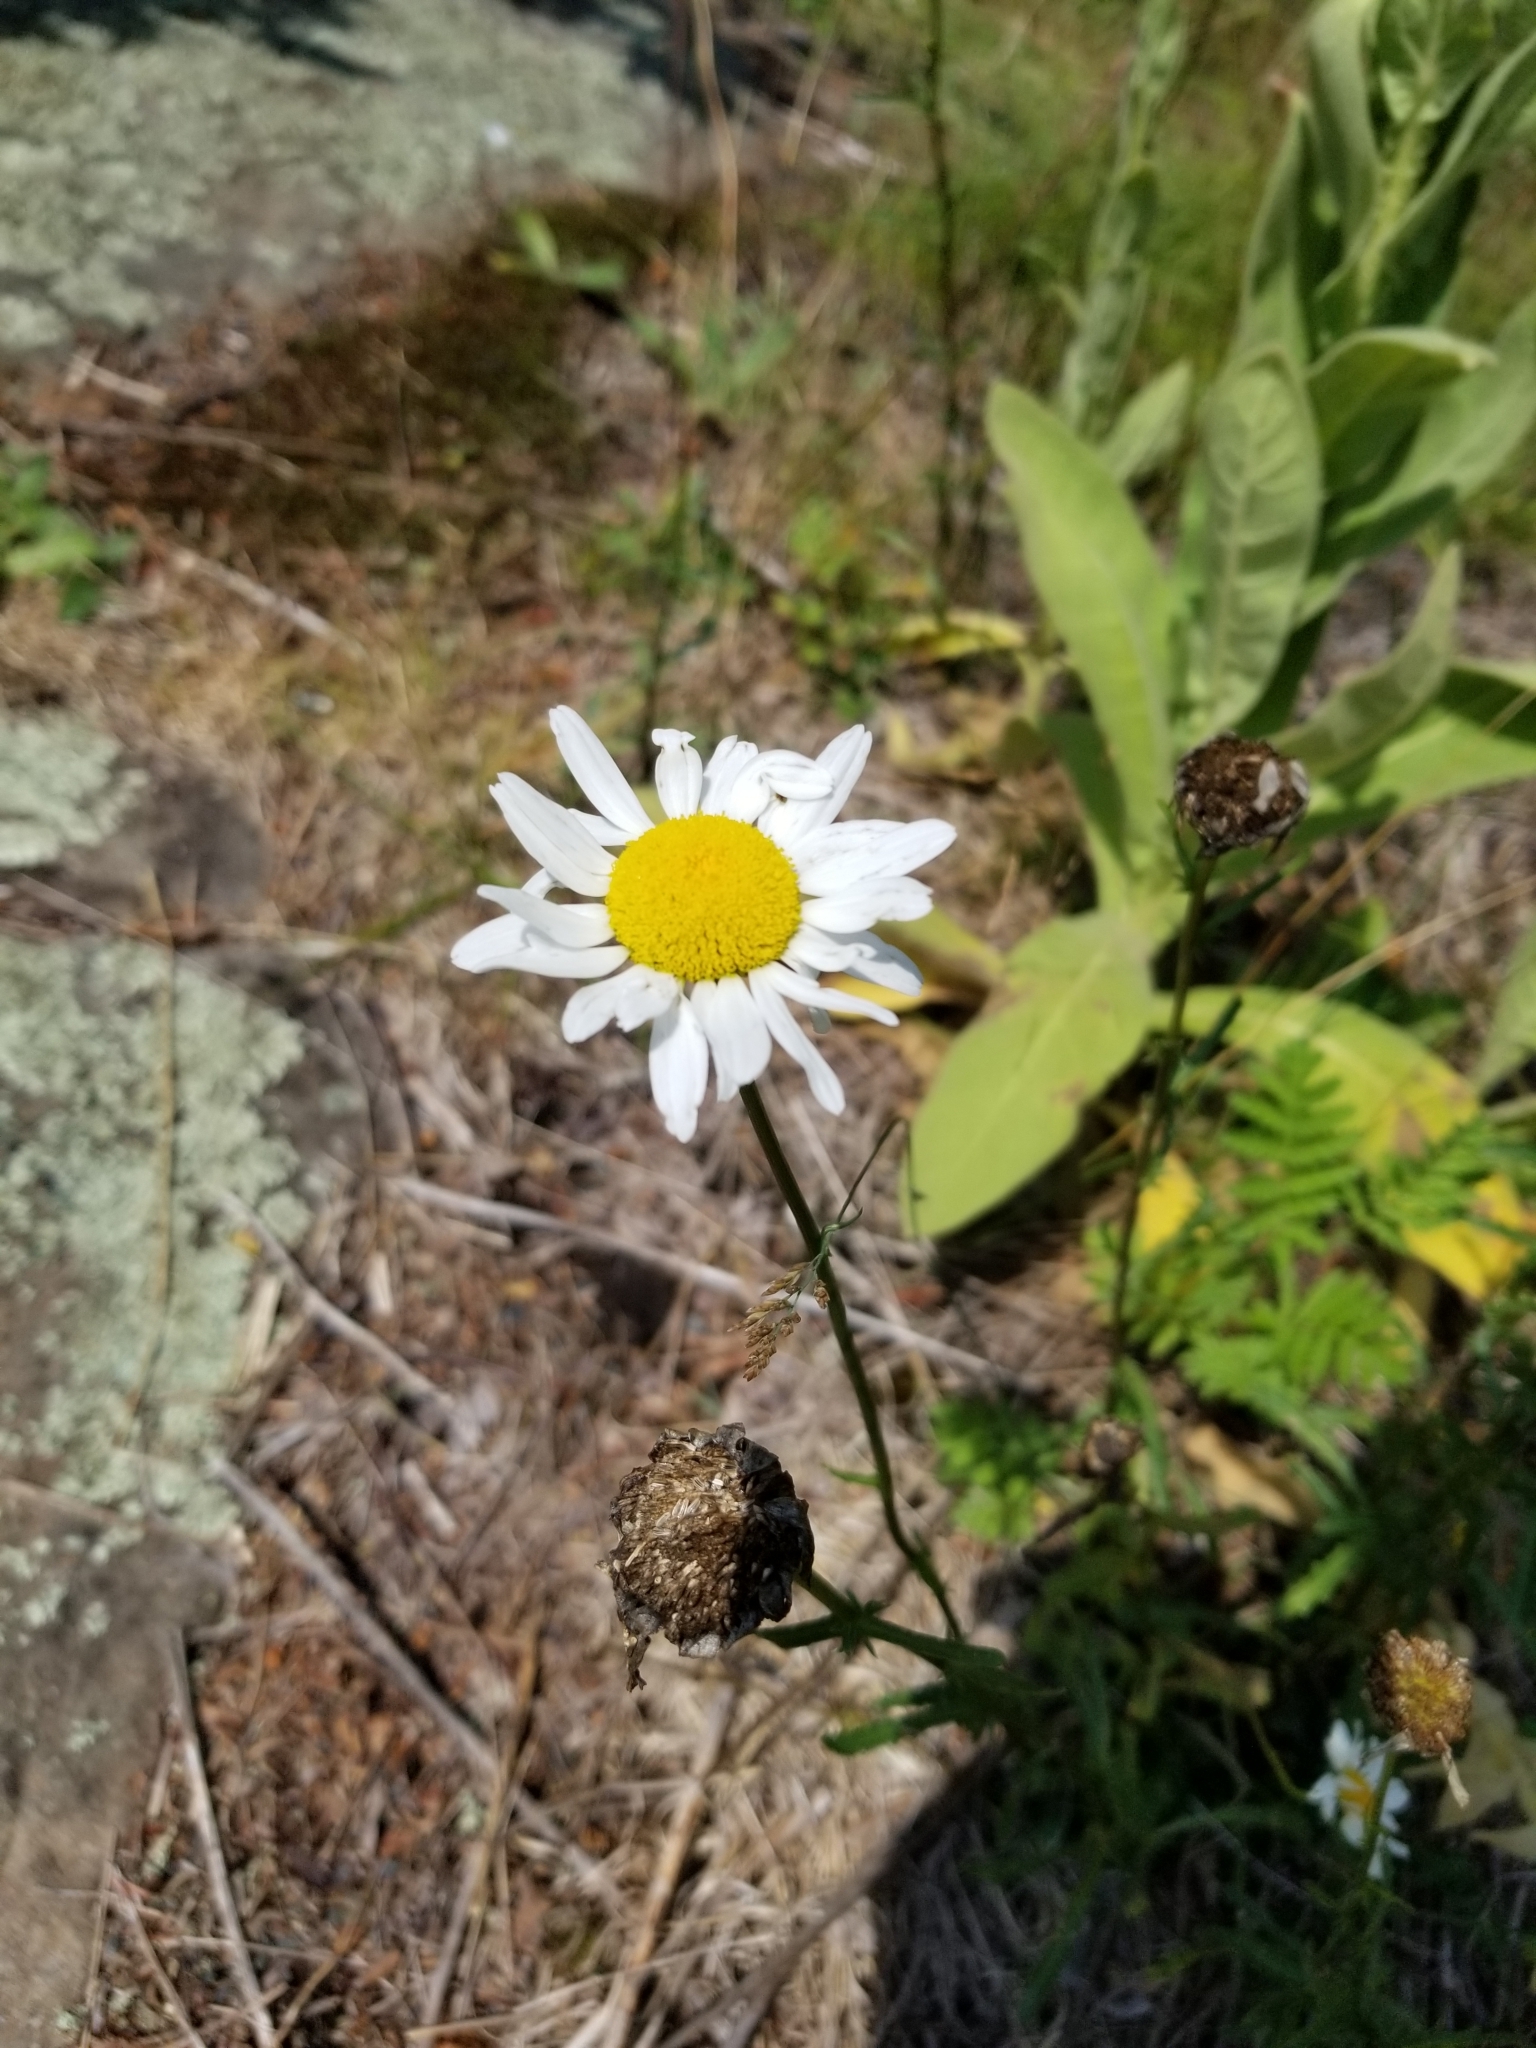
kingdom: Plantae
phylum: Tracheophyta
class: Magnoliopsida
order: Asterales
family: Asteraceae
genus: Leucanthemum
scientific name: Leucanthemum vulgare
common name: Oxeye daisy
